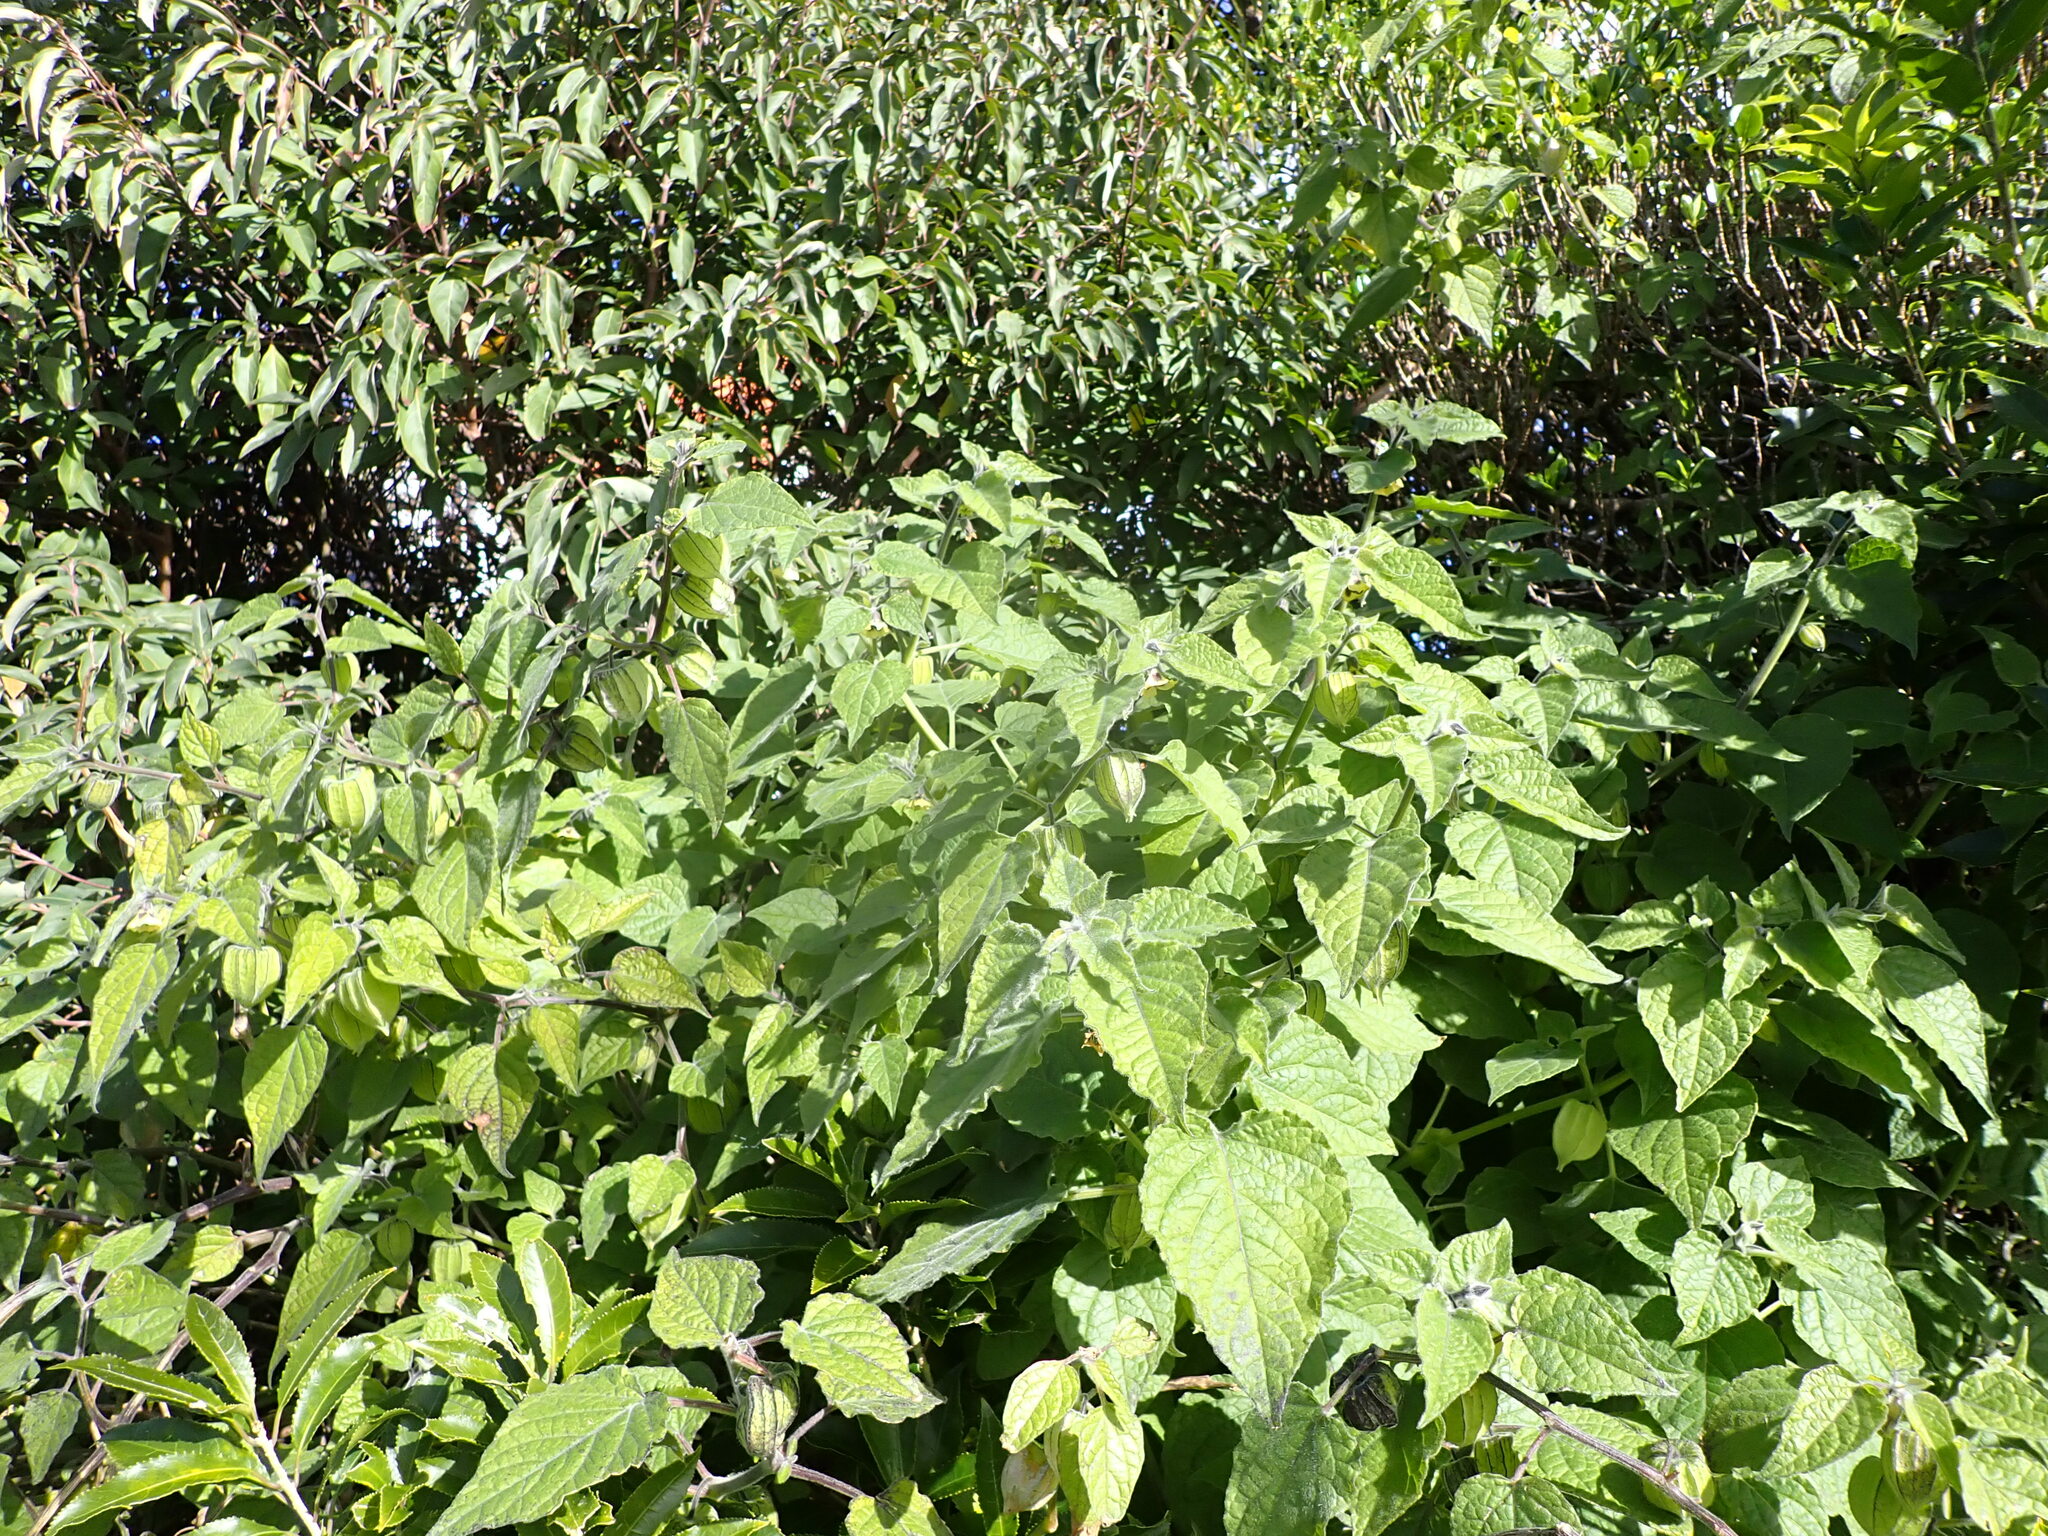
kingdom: Plantae
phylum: Tracheophyta
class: Magnoliopsida
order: Solanales
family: Solanaceae
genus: Physalis
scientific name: Physalis peruviana
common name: Cape-gooseberry
